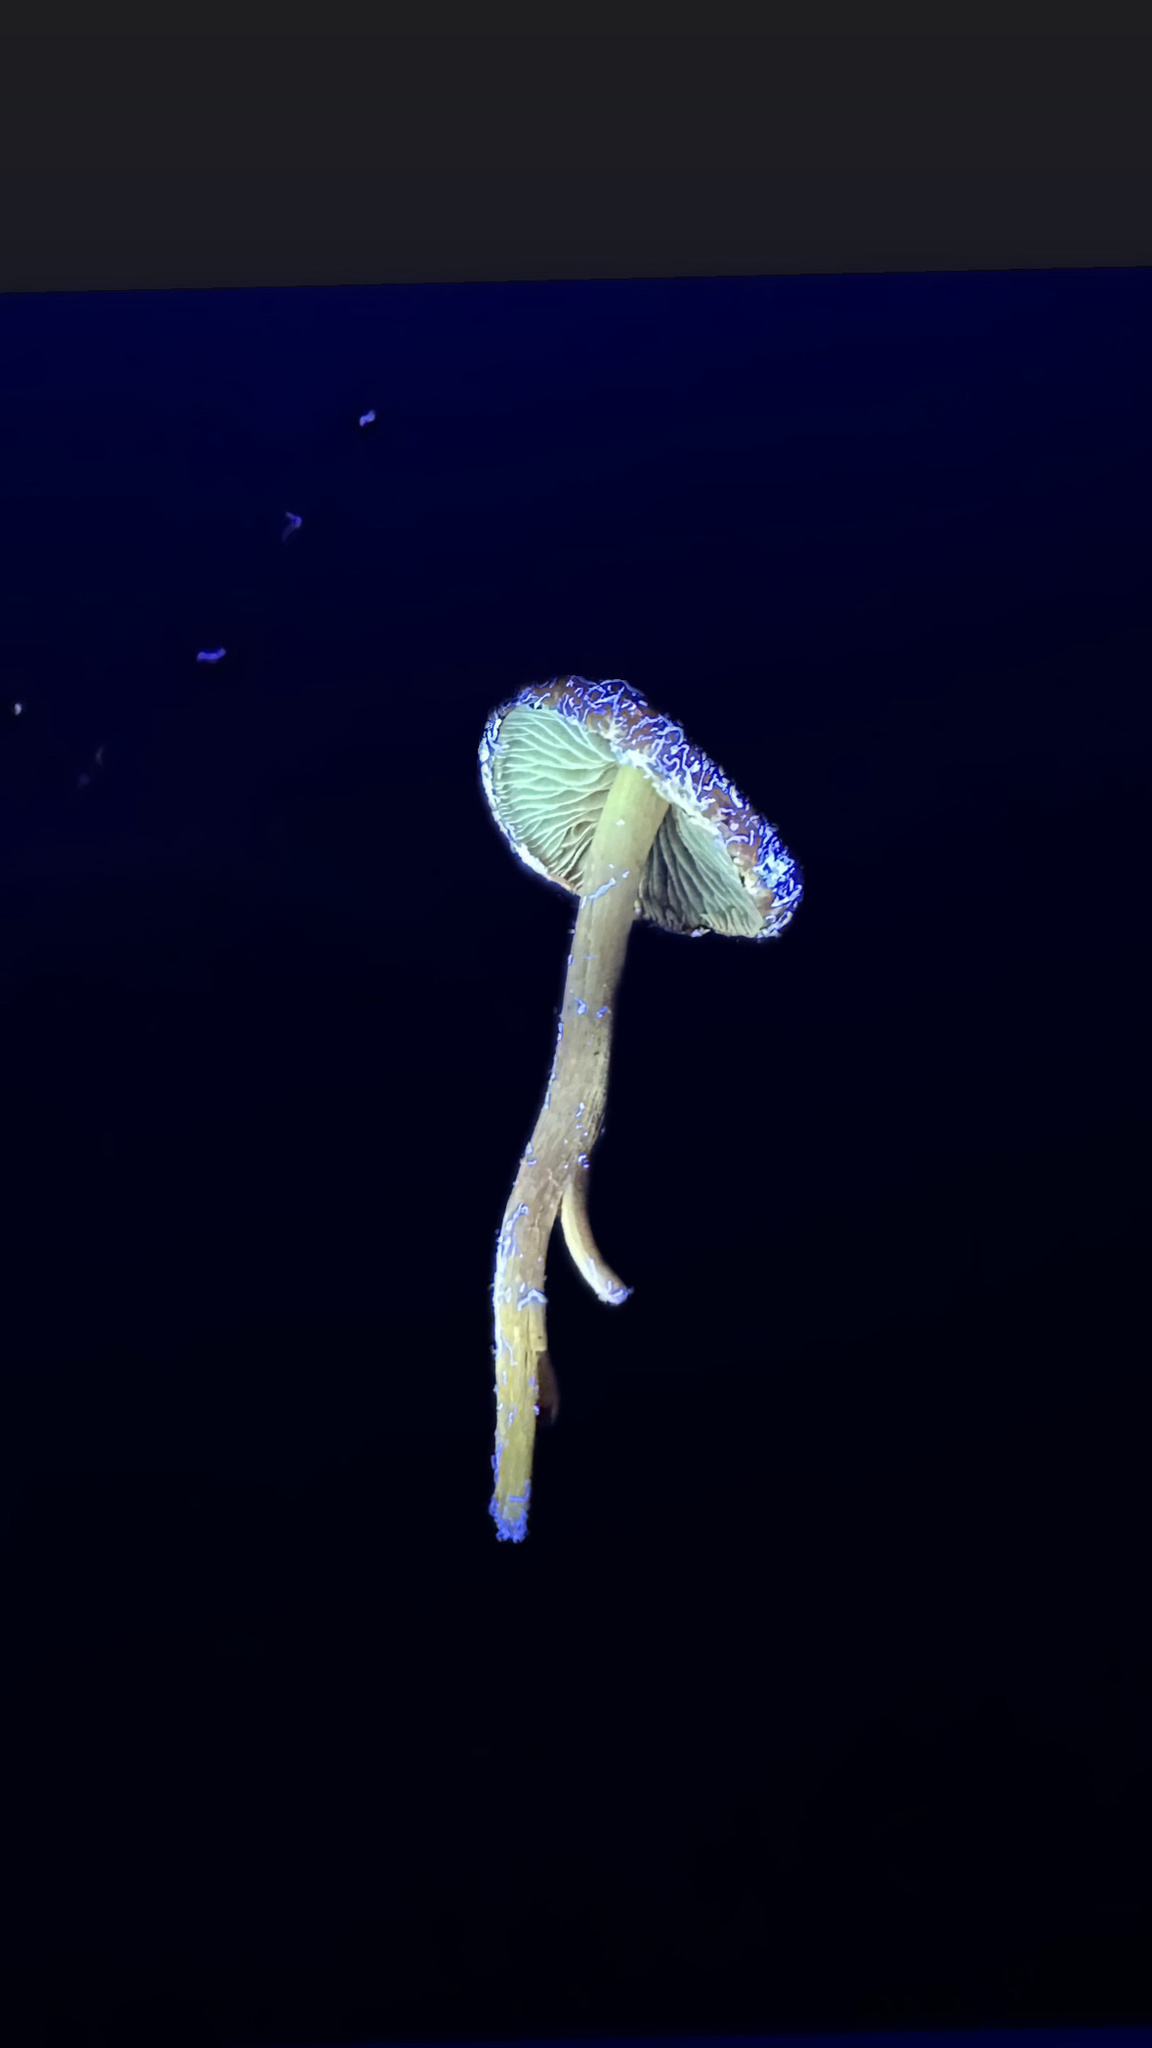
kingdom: Fungi
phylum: Basidiomycota
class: Agaricomycetes
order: Agaricales
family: Strophariaceae
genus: Leratiomyces
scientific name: Leratiomyces ceres
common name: Redlead roundhead
